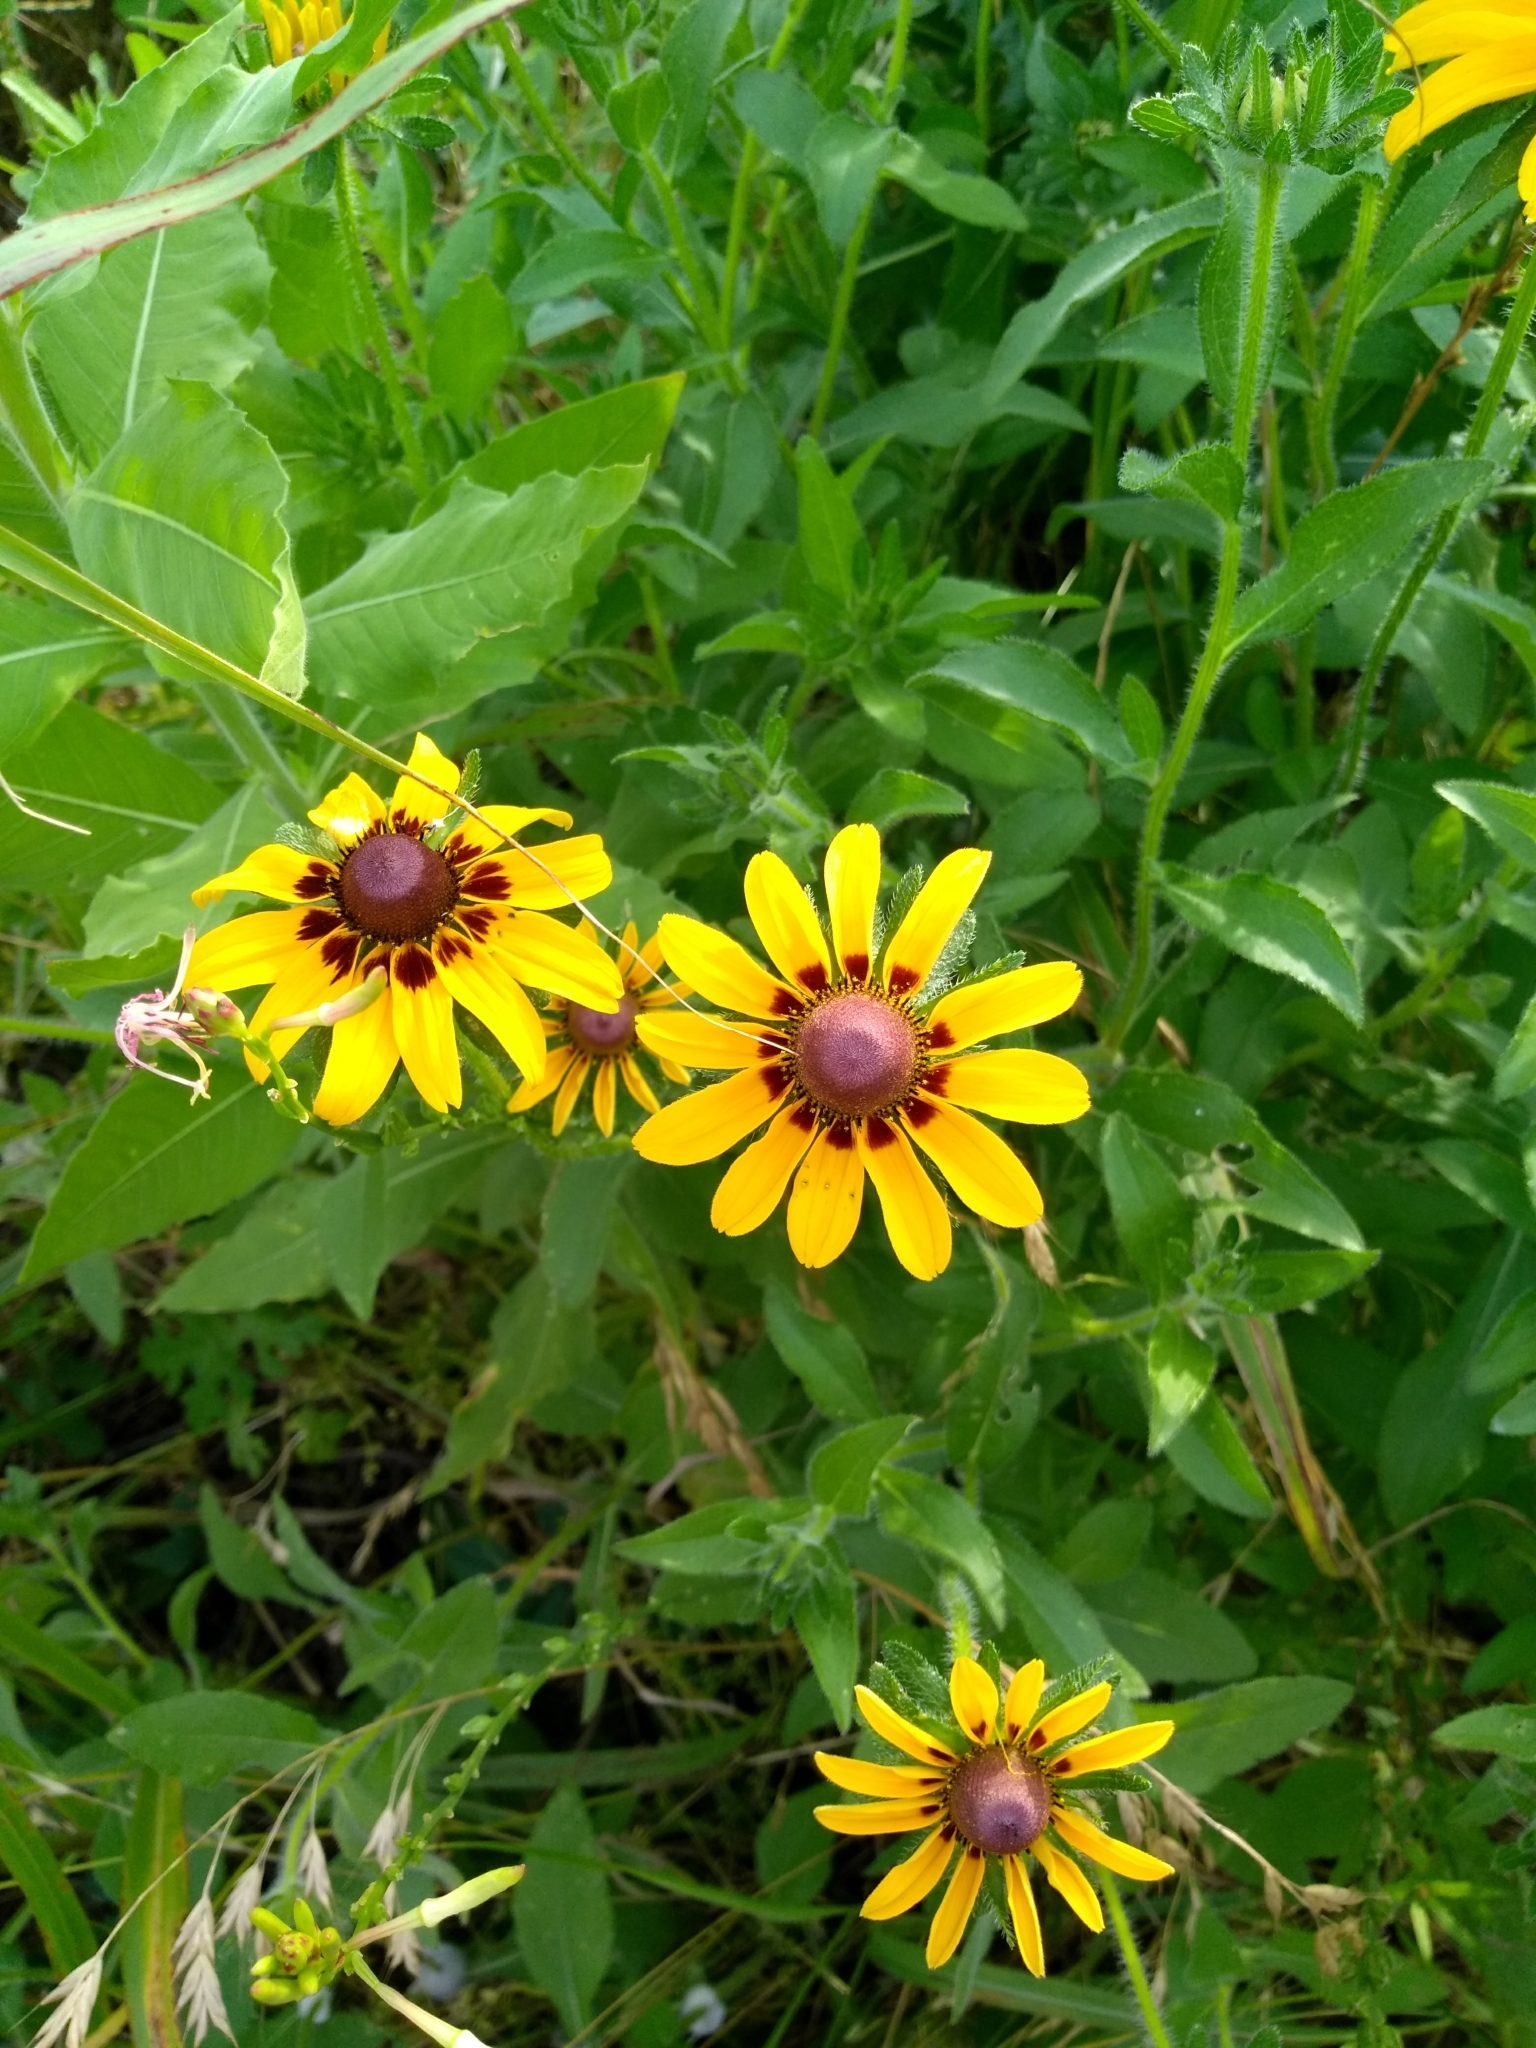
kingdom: Plantae
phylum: Tracheophyta
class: Magnoliopsida
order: Asterales
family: Asteraceae
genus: Rudbeckia
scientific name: Rudbeckia hirta
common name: Black-eyed-susan
